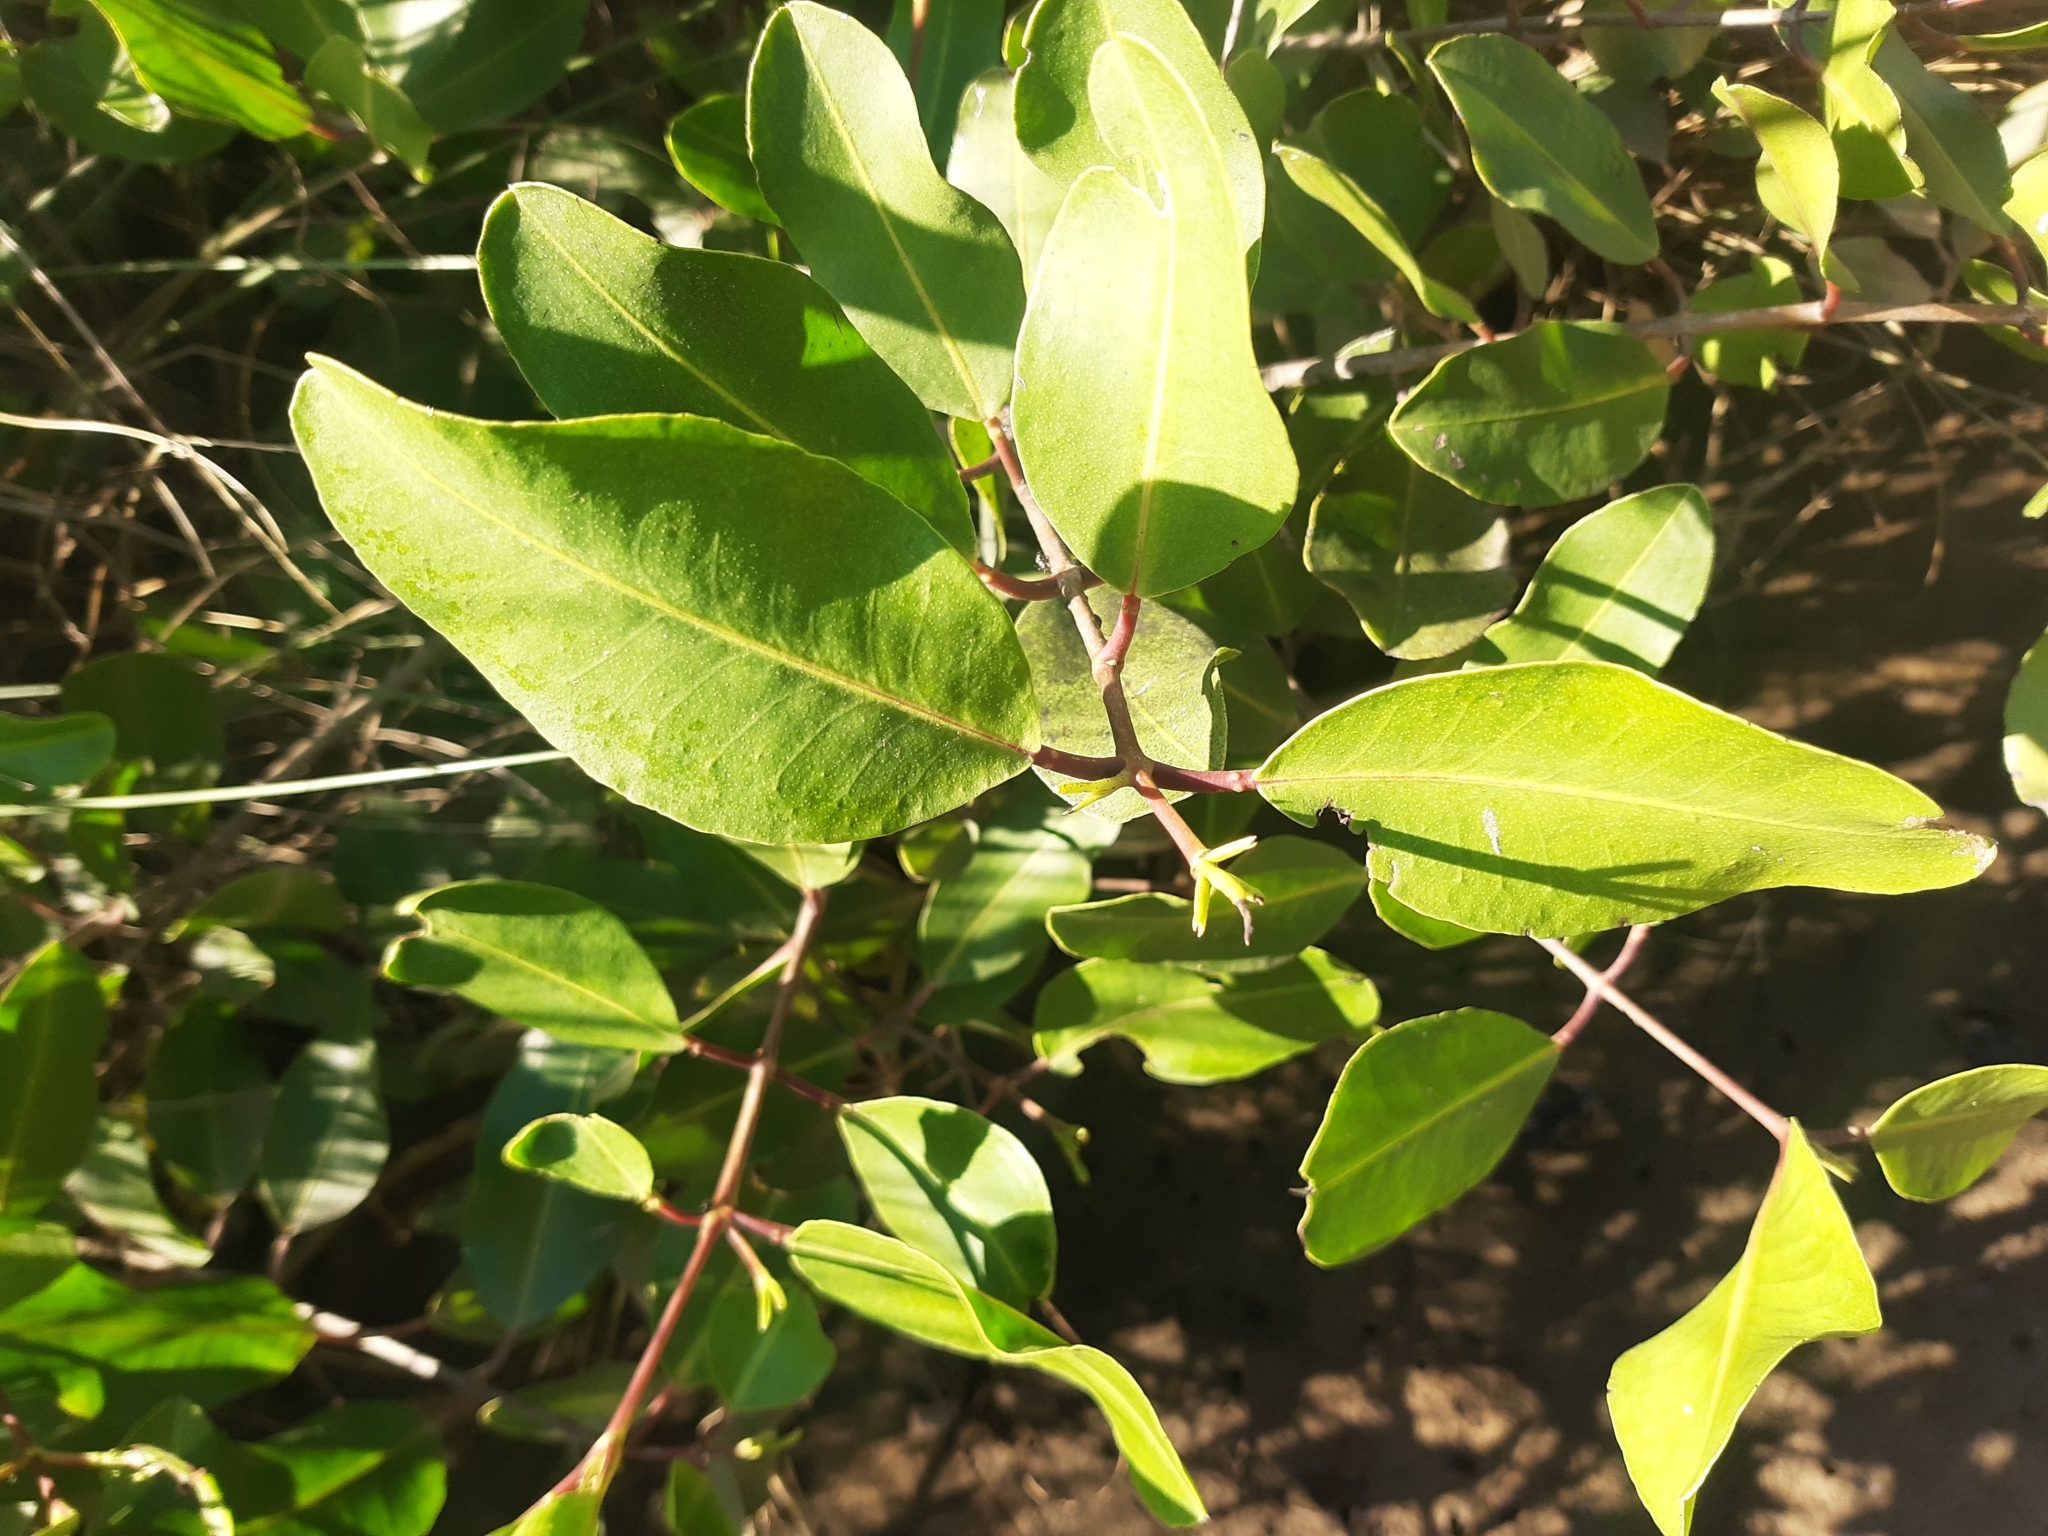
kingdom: Plantae
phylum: Tracheophyta
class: Magnoliopsida
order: Myrtales
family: Combretaceae
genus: Laguncularia
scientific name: Laguncularia racemosa
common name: White mangrove
